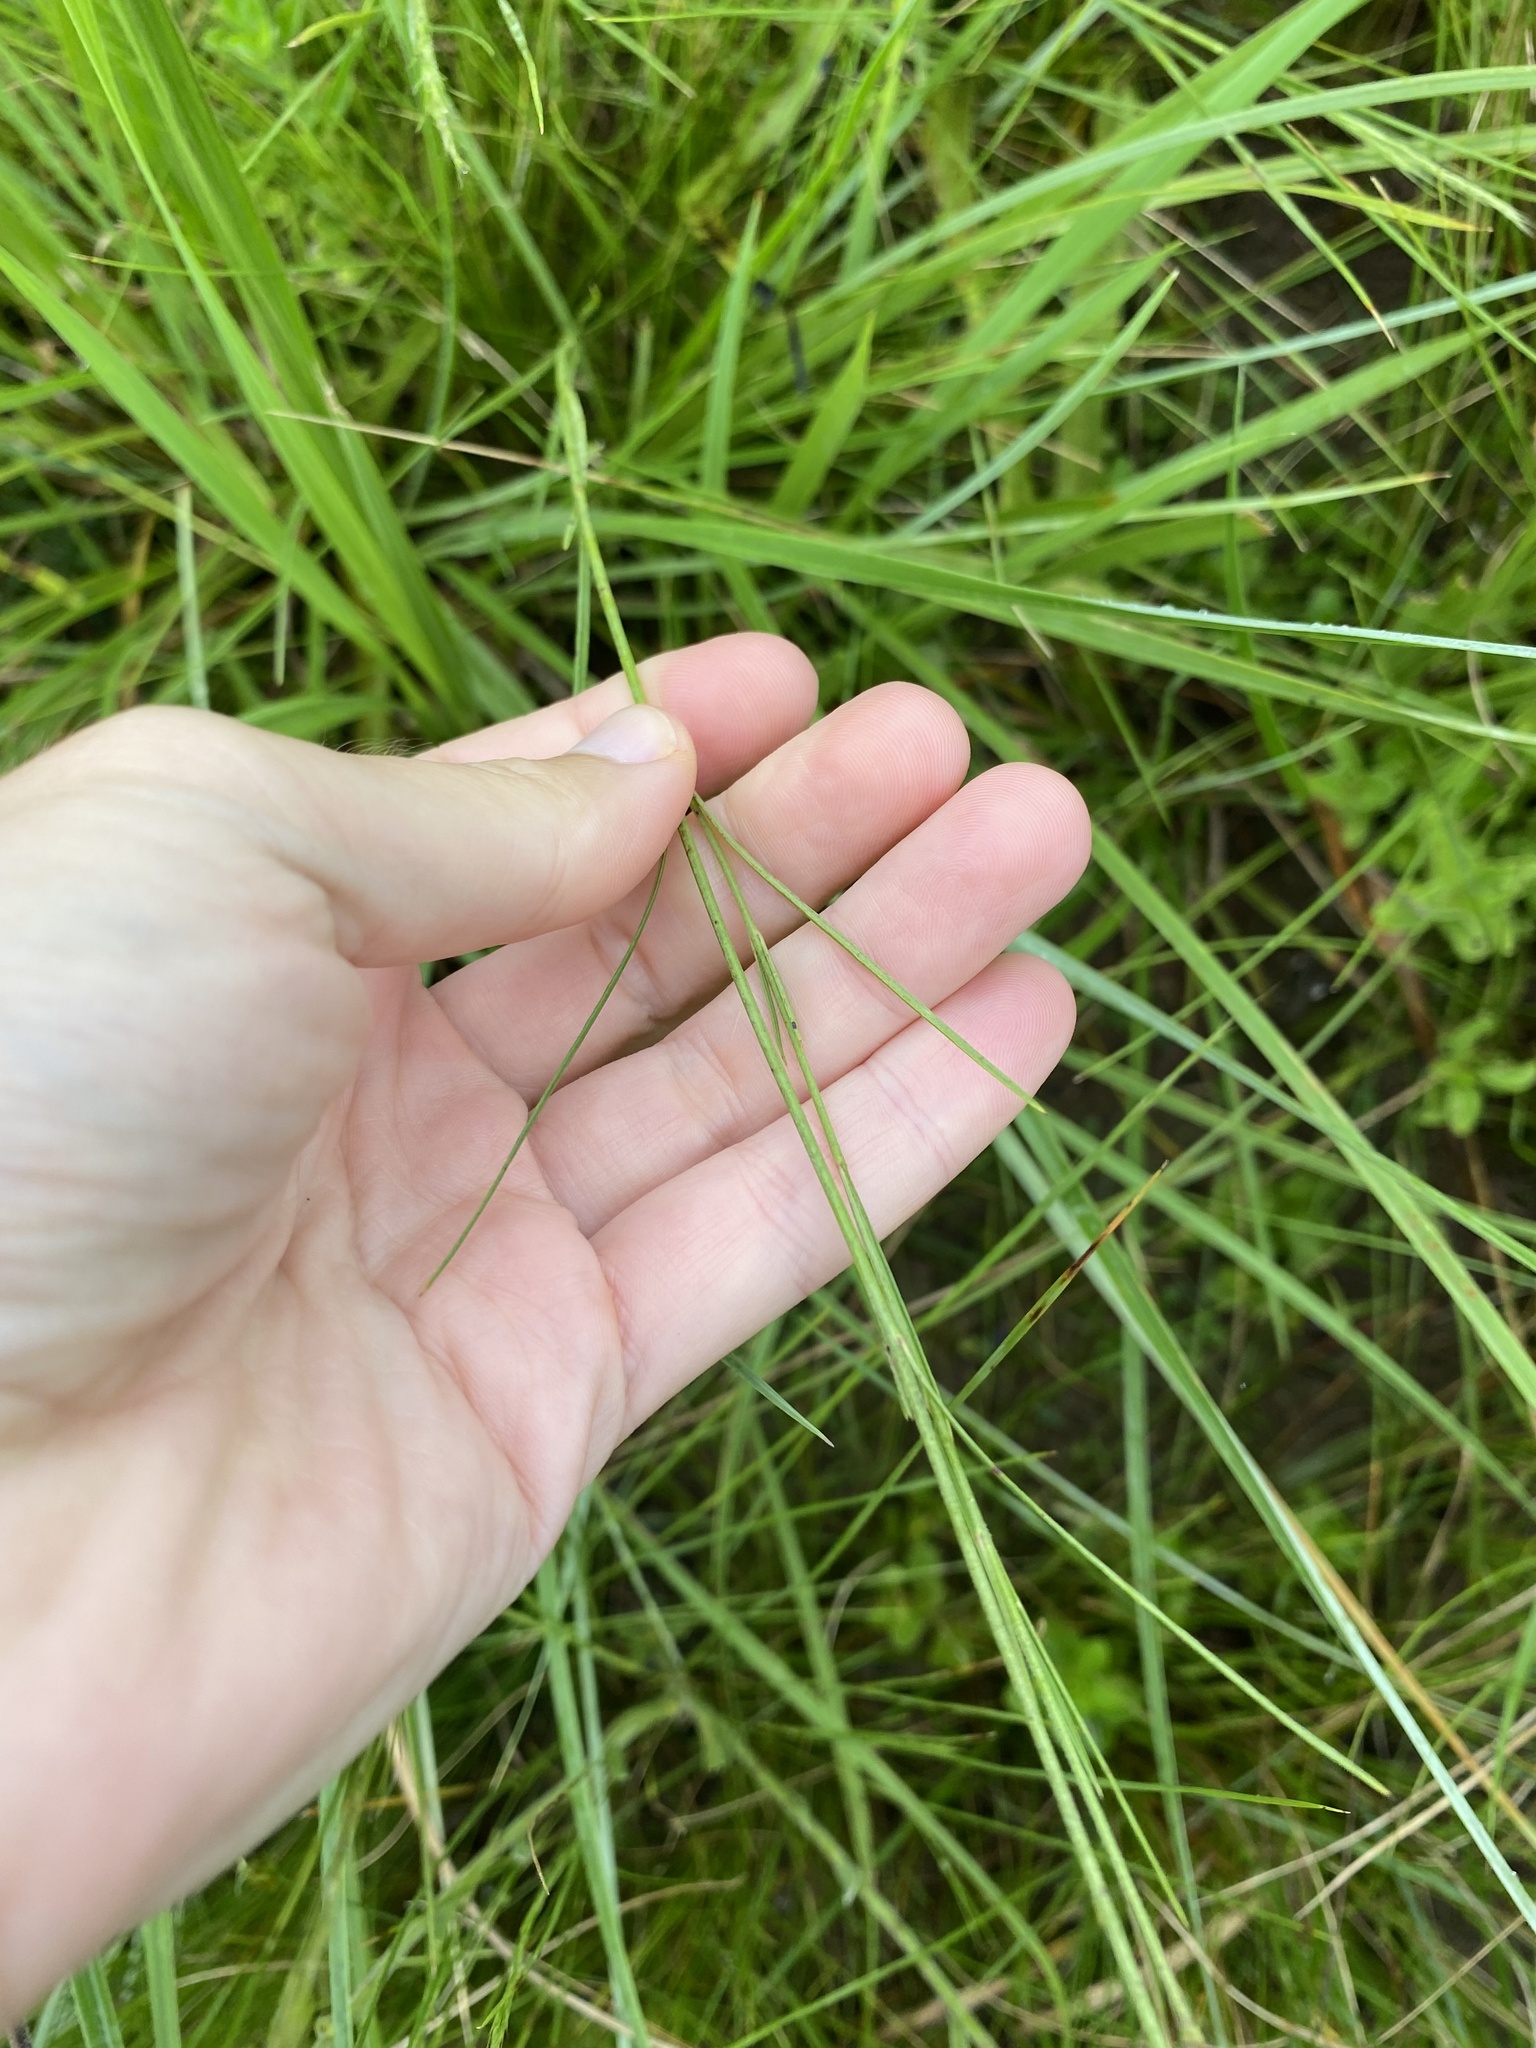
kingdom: Plantae
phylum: Tracheophyta
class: Magnoliopsida
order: Gentianales
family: Apocynaceae
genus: Aspidoglossum
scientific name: Aspidoglossum woodii
